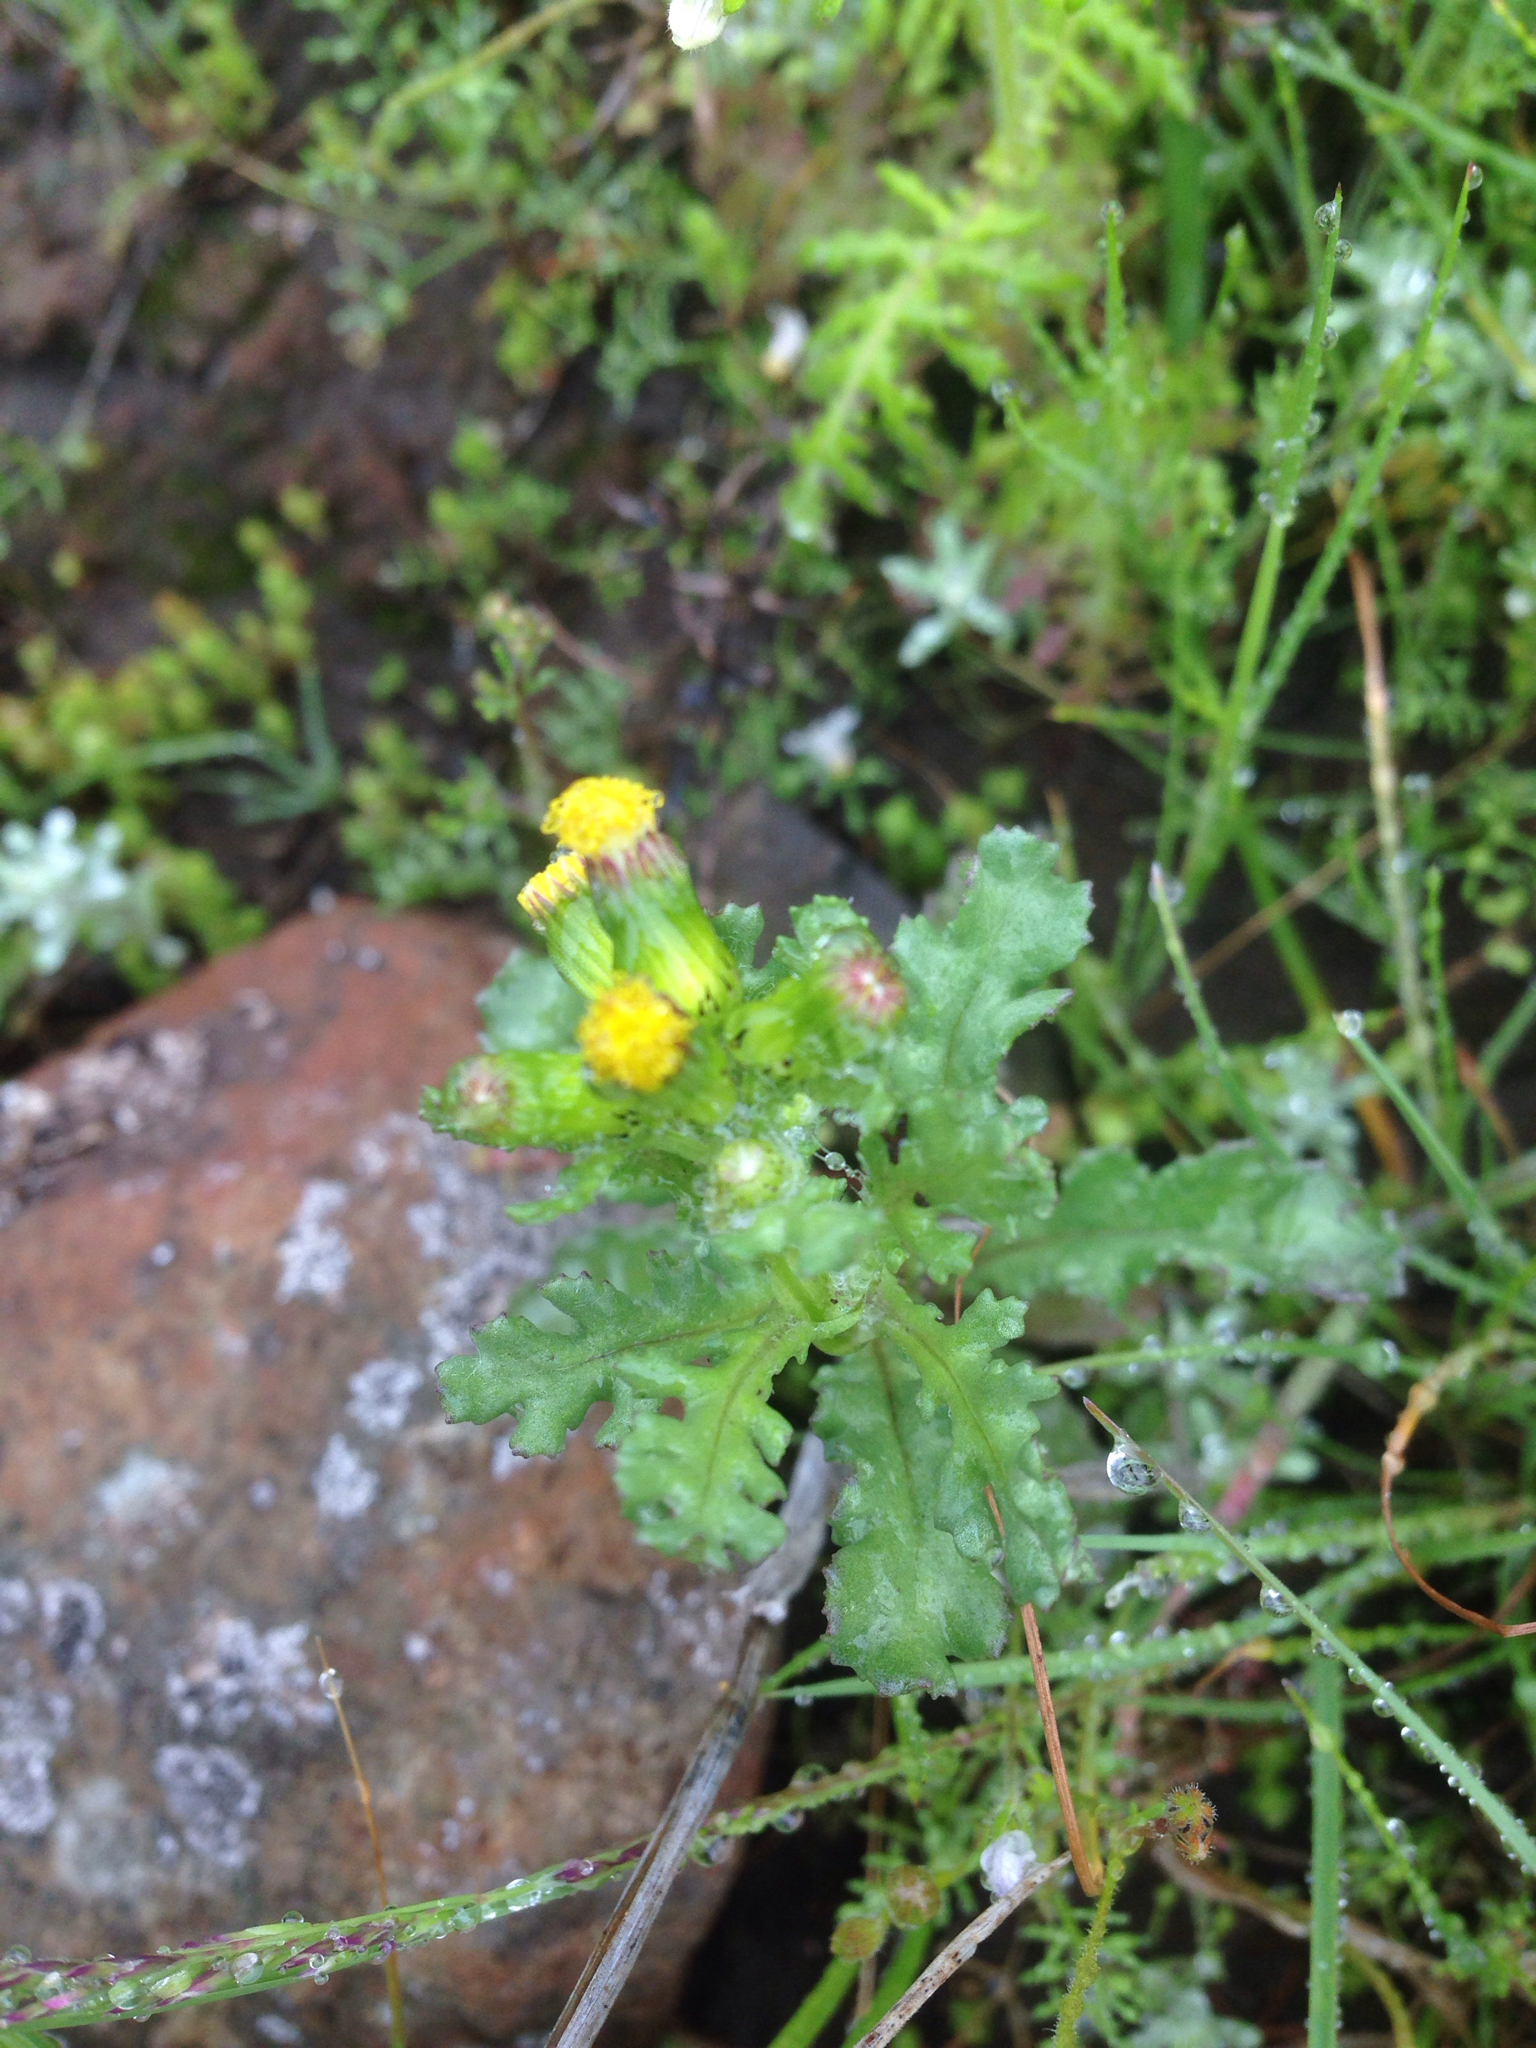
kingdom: Plantae
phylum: Tracheophyta
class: Magnoliopsida
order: Asterales
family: Asteraceae
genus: Senecio
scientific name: Senecio vulgaris
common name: Old-man-in-the-spring
